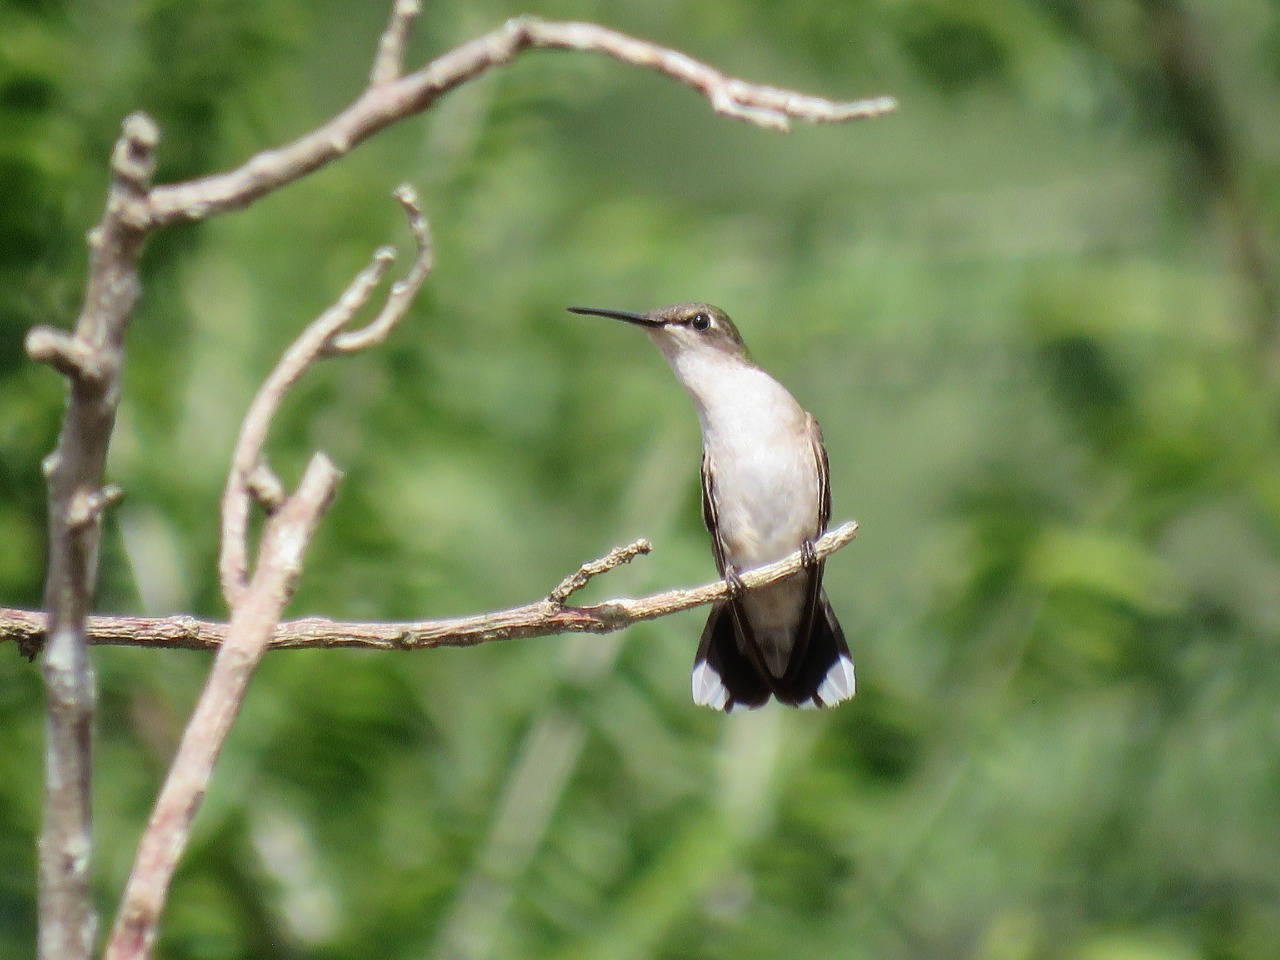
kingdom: Animalia
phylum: Chordata
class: Aves
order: Apodiformes
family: Trochilidae
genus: Archilochus
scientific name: Archilochus colubris
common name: Ruby-throated hummingbird
